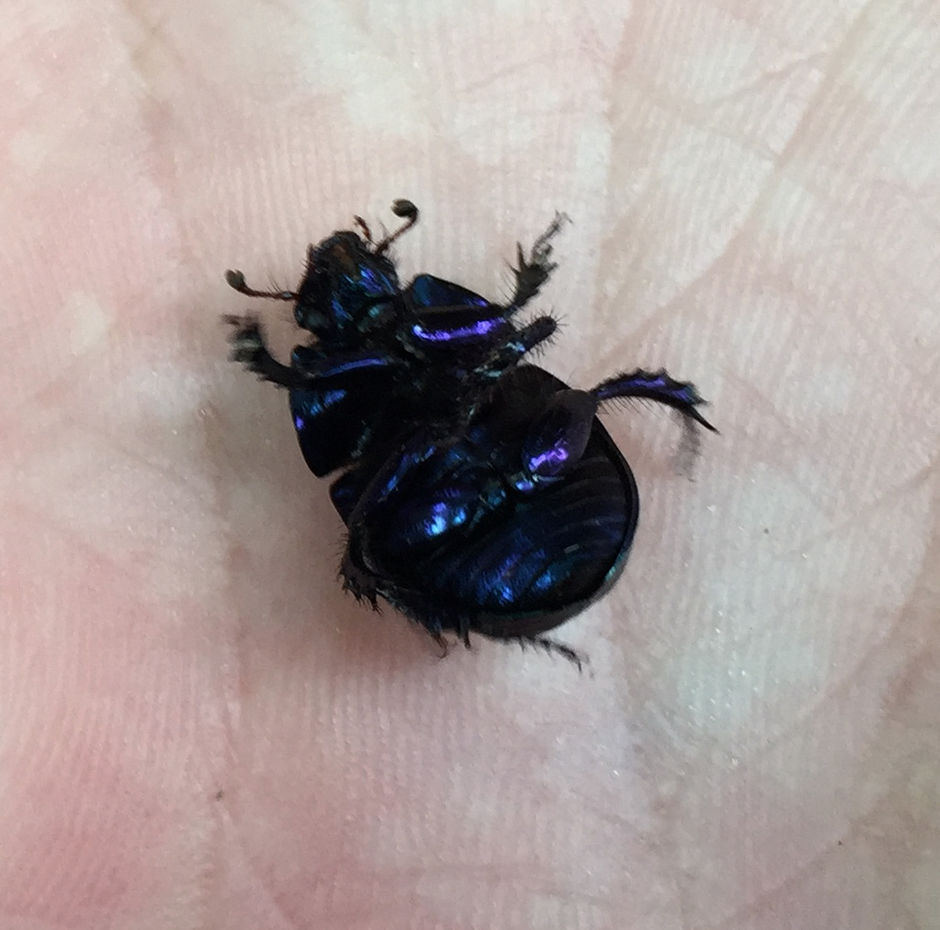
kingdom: Animalia
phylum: Arthropoda
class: Insecta
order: Coleoptera
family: Geotrupidae
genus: Anoplotrupes
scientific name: Anoplotrupes stercorosus
